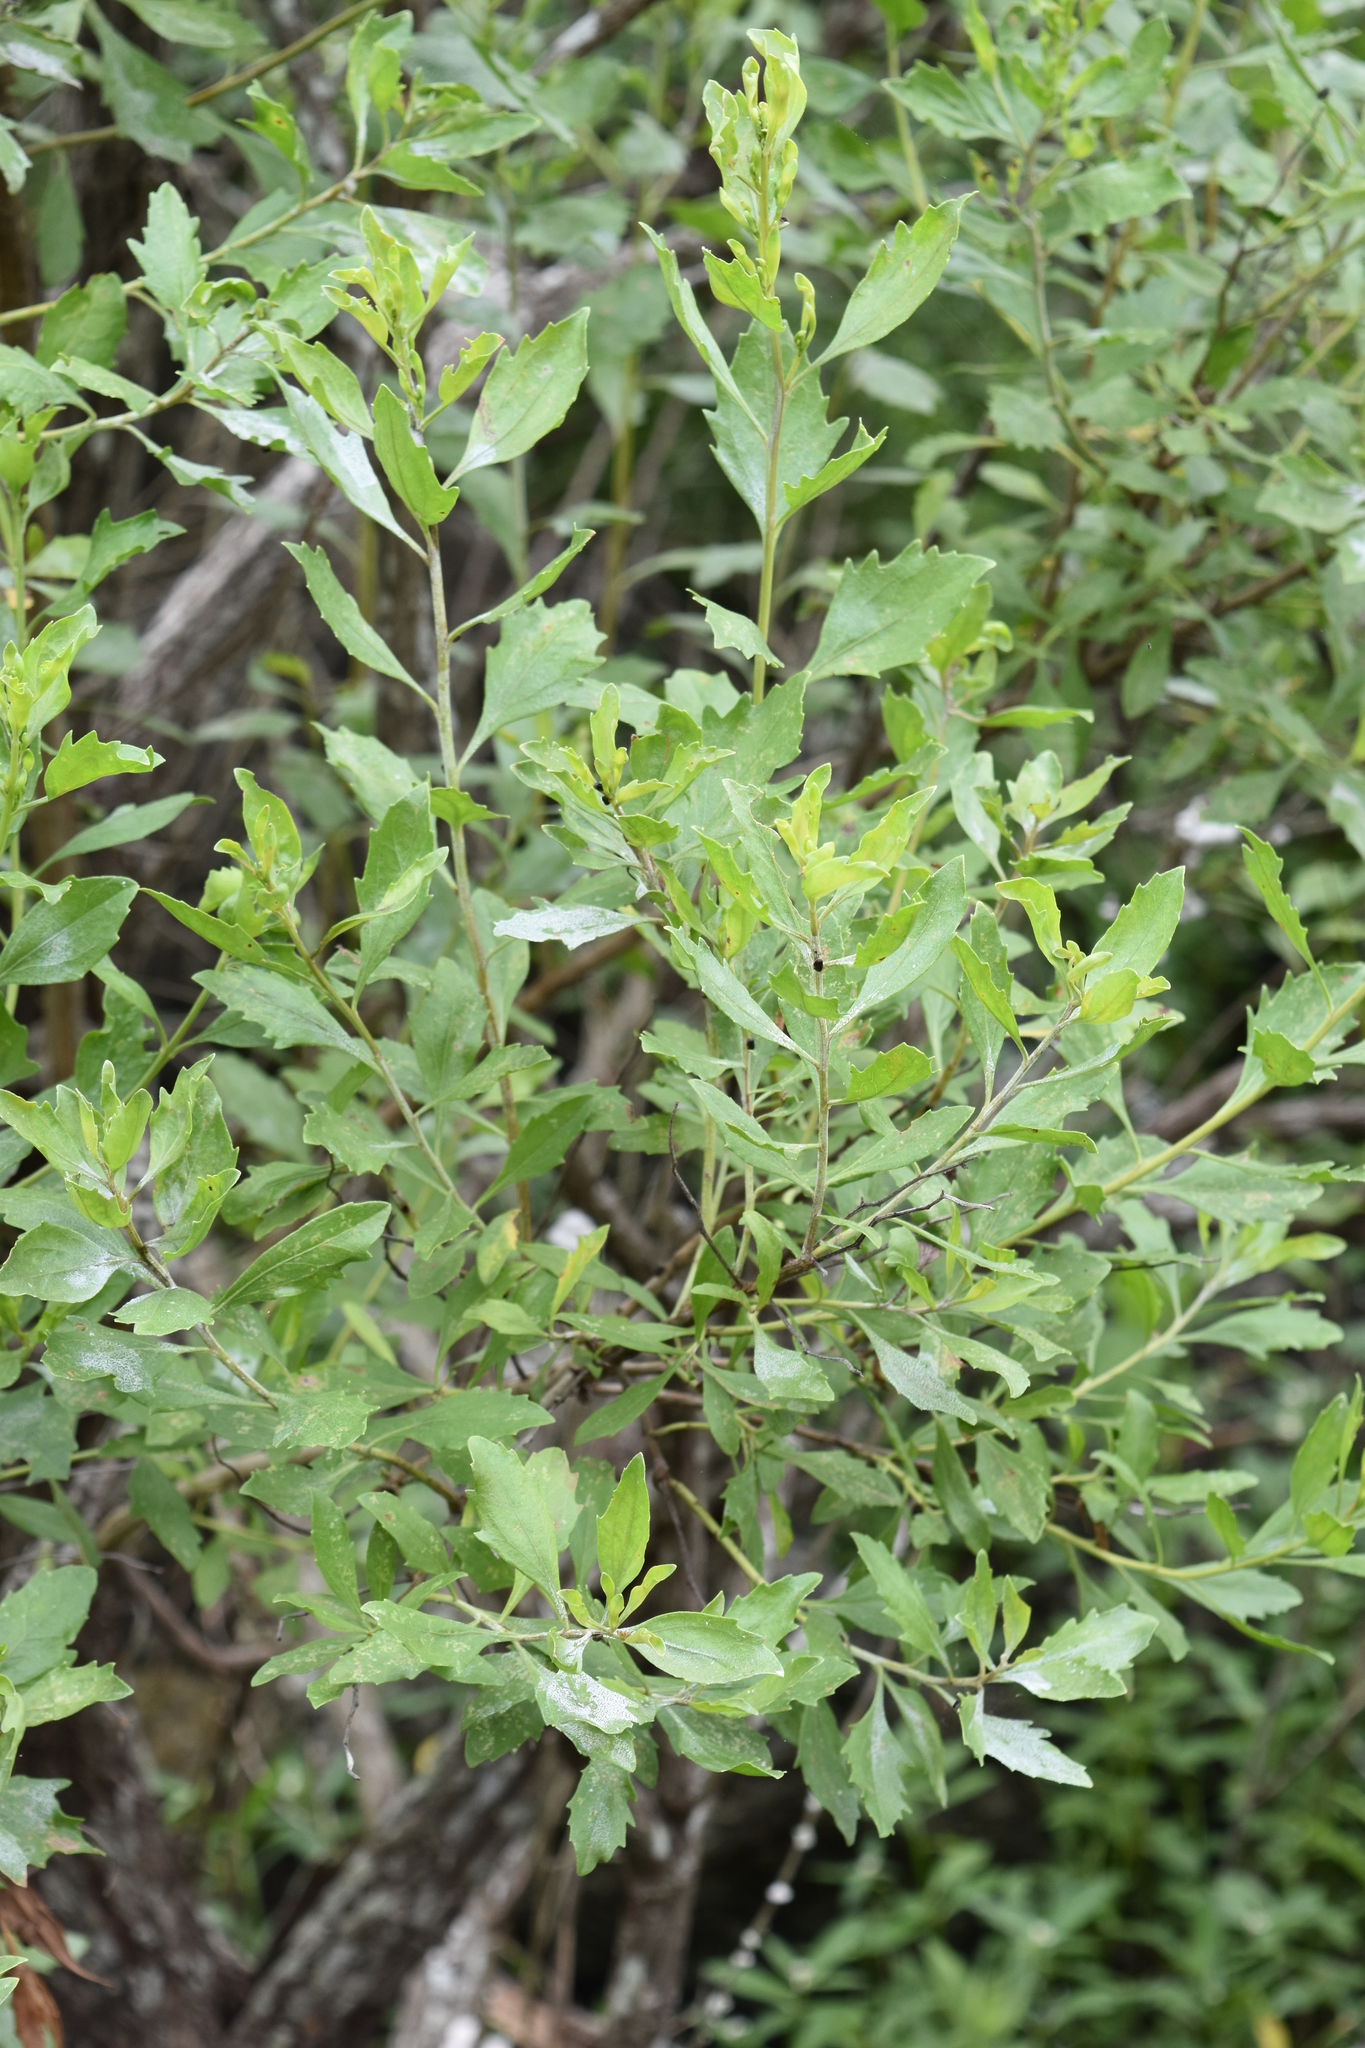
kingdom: Plantae
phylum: Tracheophyta
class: Magnoliopsida
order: Asterales
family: Asteraceae
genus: Baccharis
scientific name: Baccharis halimifolia
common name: Eastern baccharis
